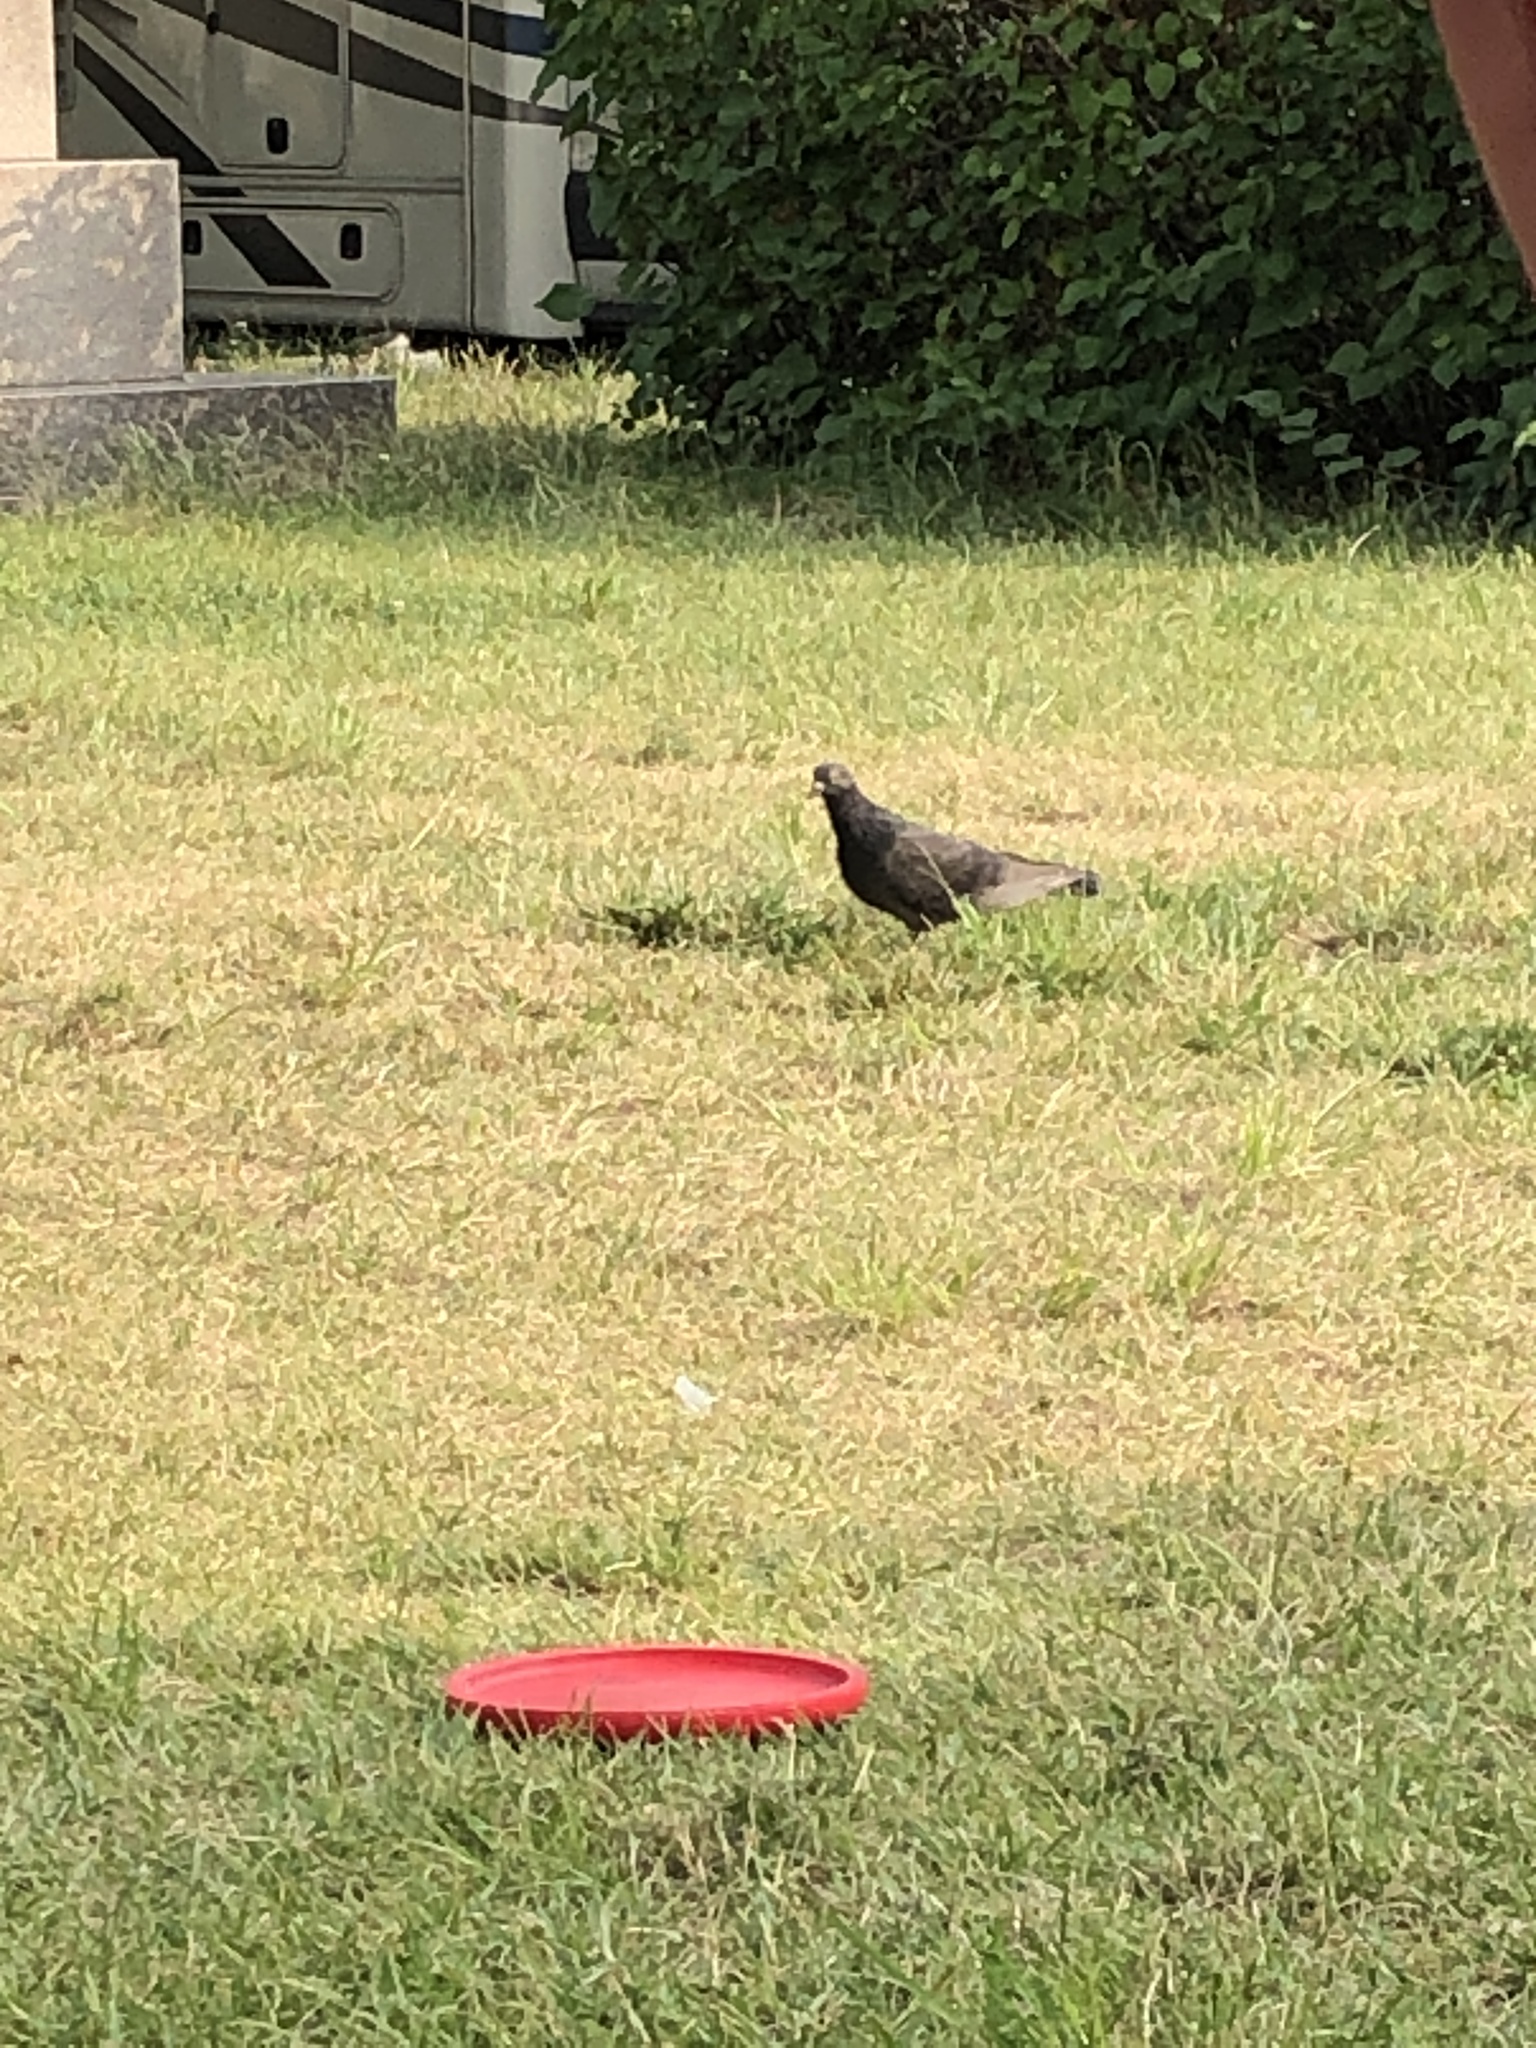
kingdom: Animalia
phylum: Chordata
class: Aves
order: Columbiformes
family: Columbidae
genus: Columba
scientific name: Columba livia
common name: Rock pigeon
